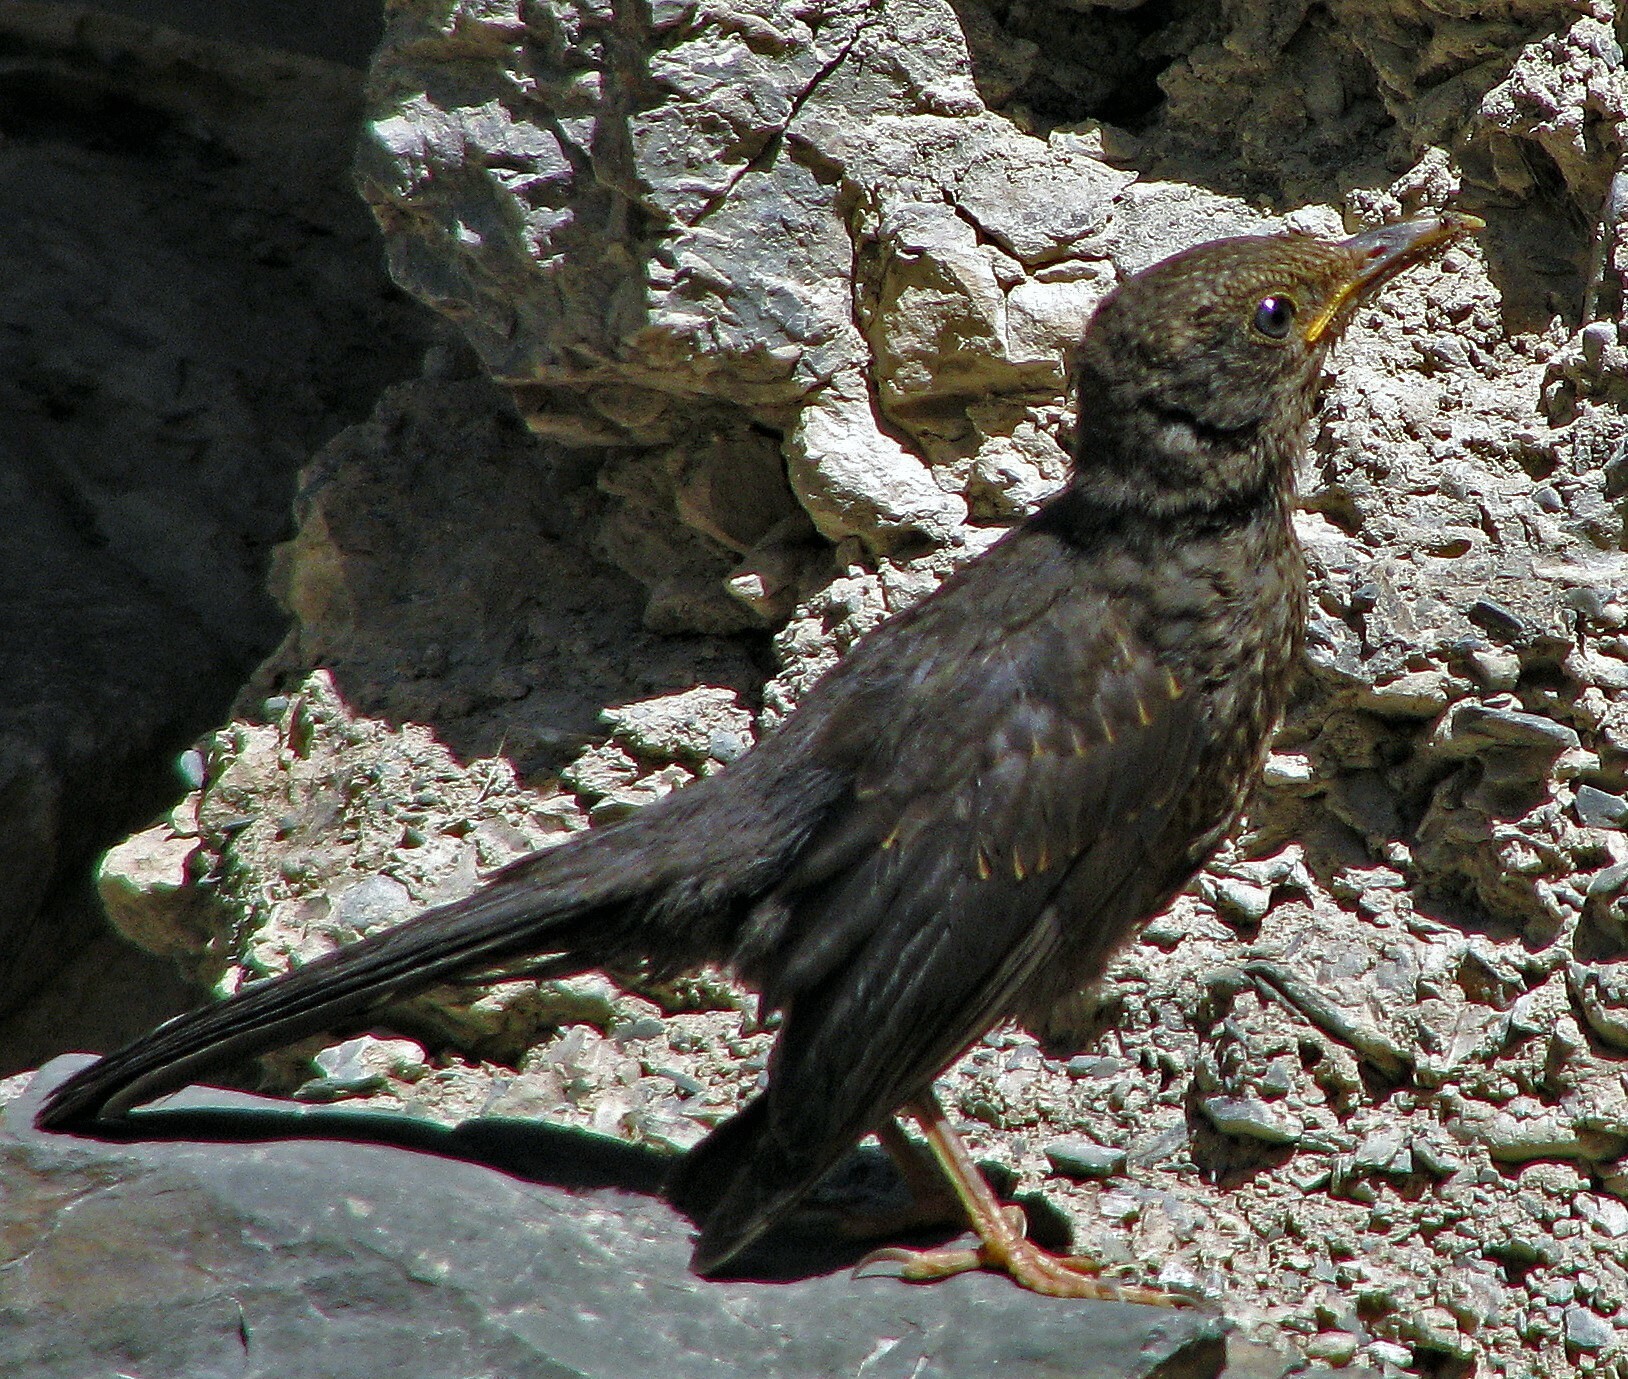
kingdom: Animalia
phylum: Chordata
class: Aves
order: Passeriformes
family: Turdidae
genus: Turdus
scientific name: Turdus chiguanco
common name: Chiguanco thrush
